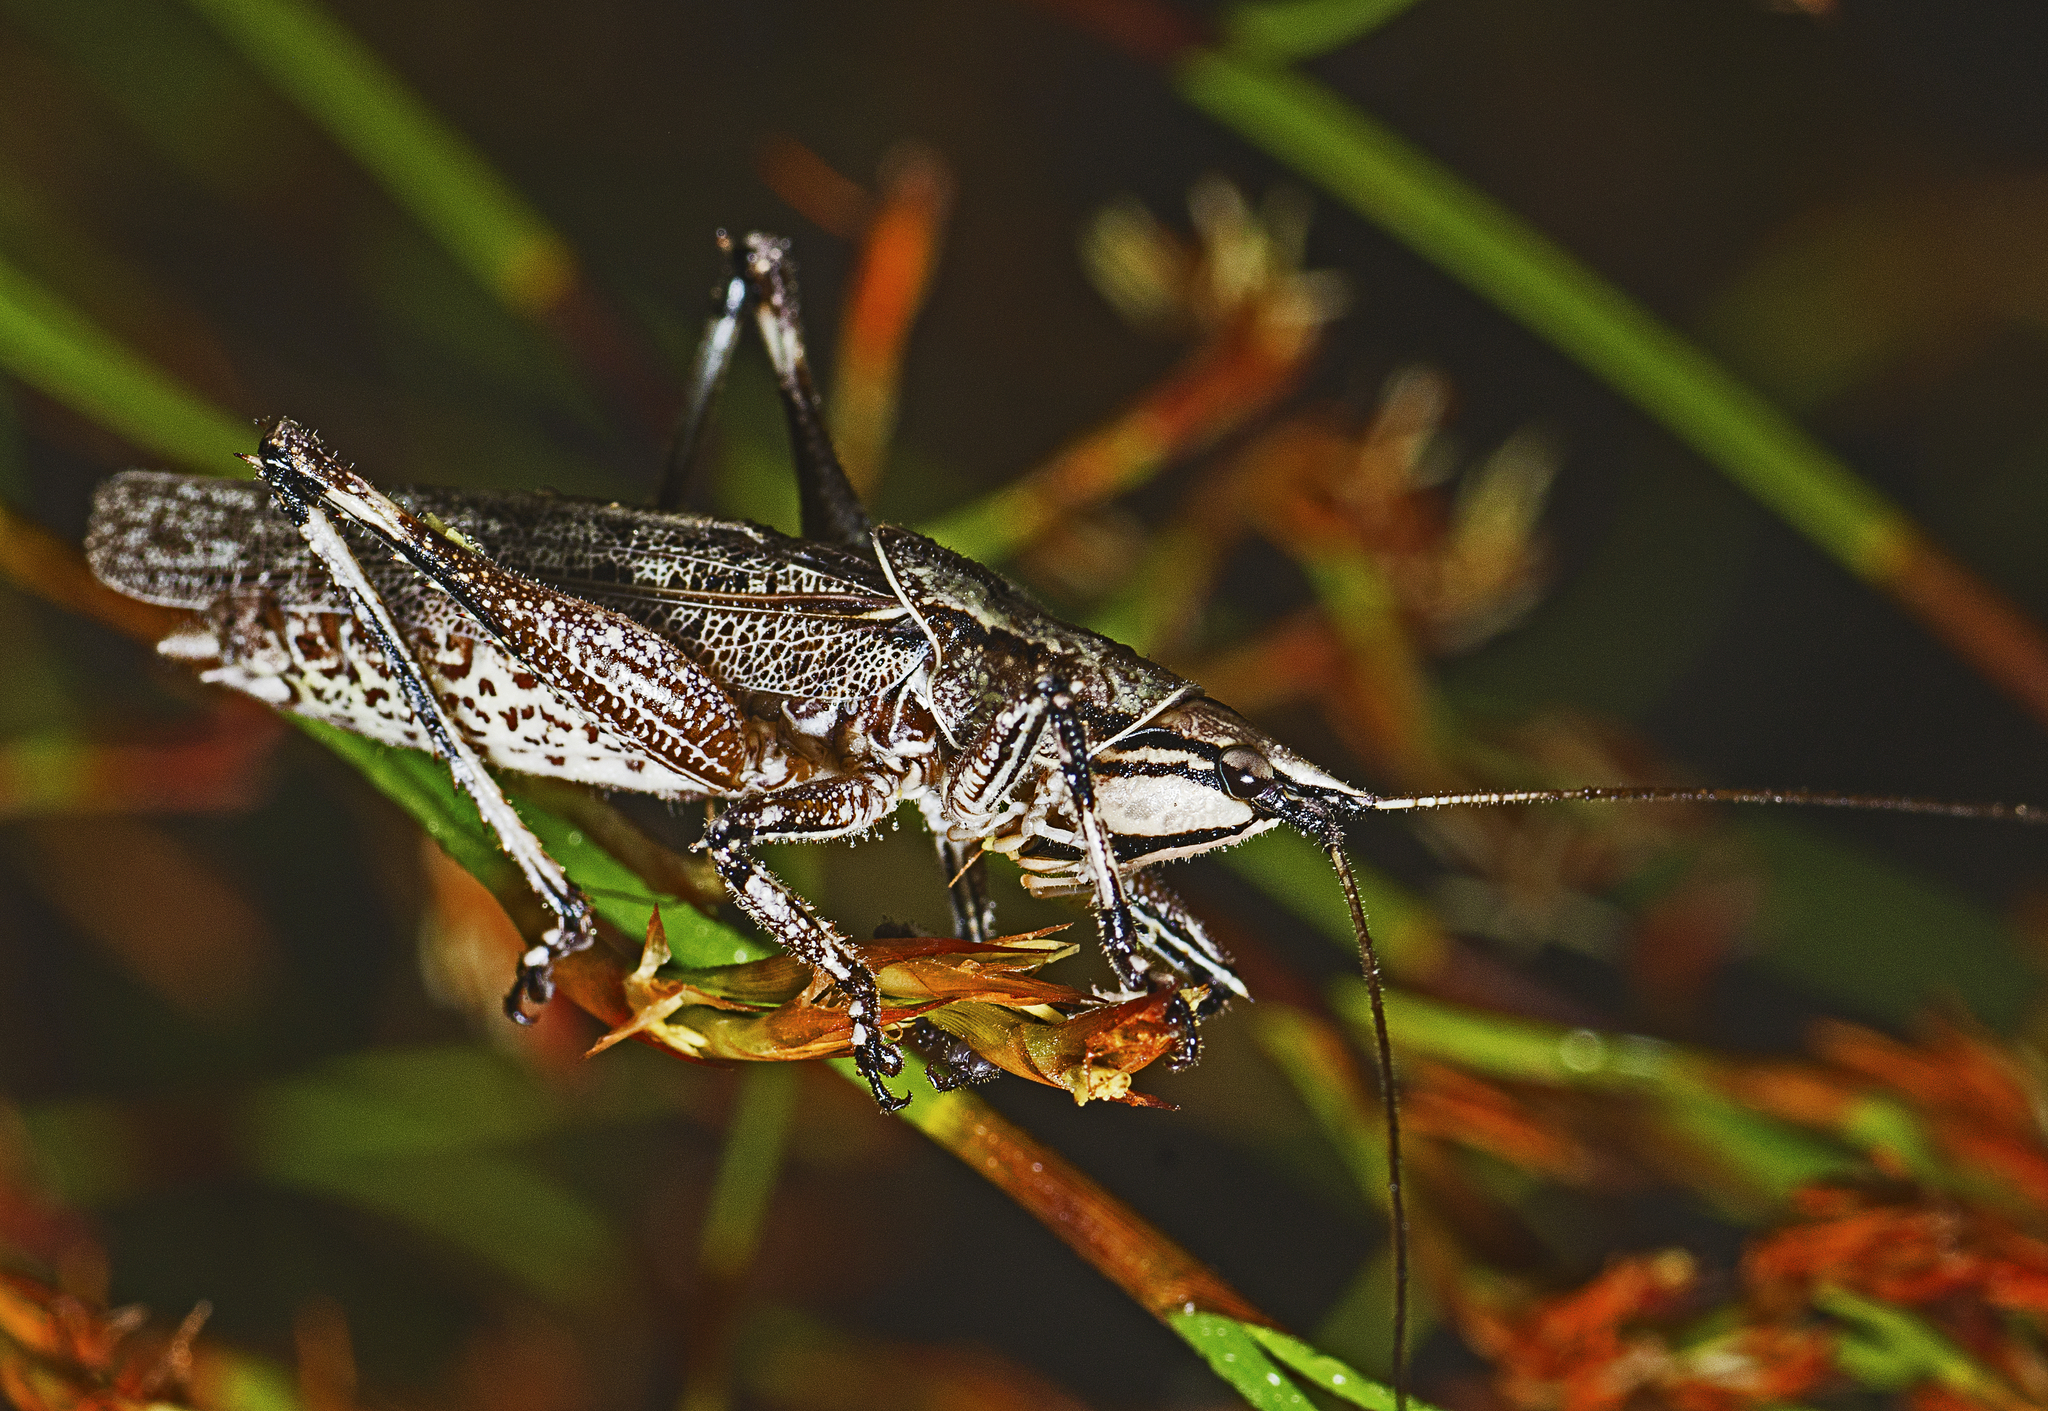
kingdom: Animalia
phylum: Arthropoda
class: Insecta
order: Orthoptera
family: Tettigoniidae
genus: Larifugagraecia
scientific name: Larifugagraecia cornuta
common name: Spine-headed nicsara
